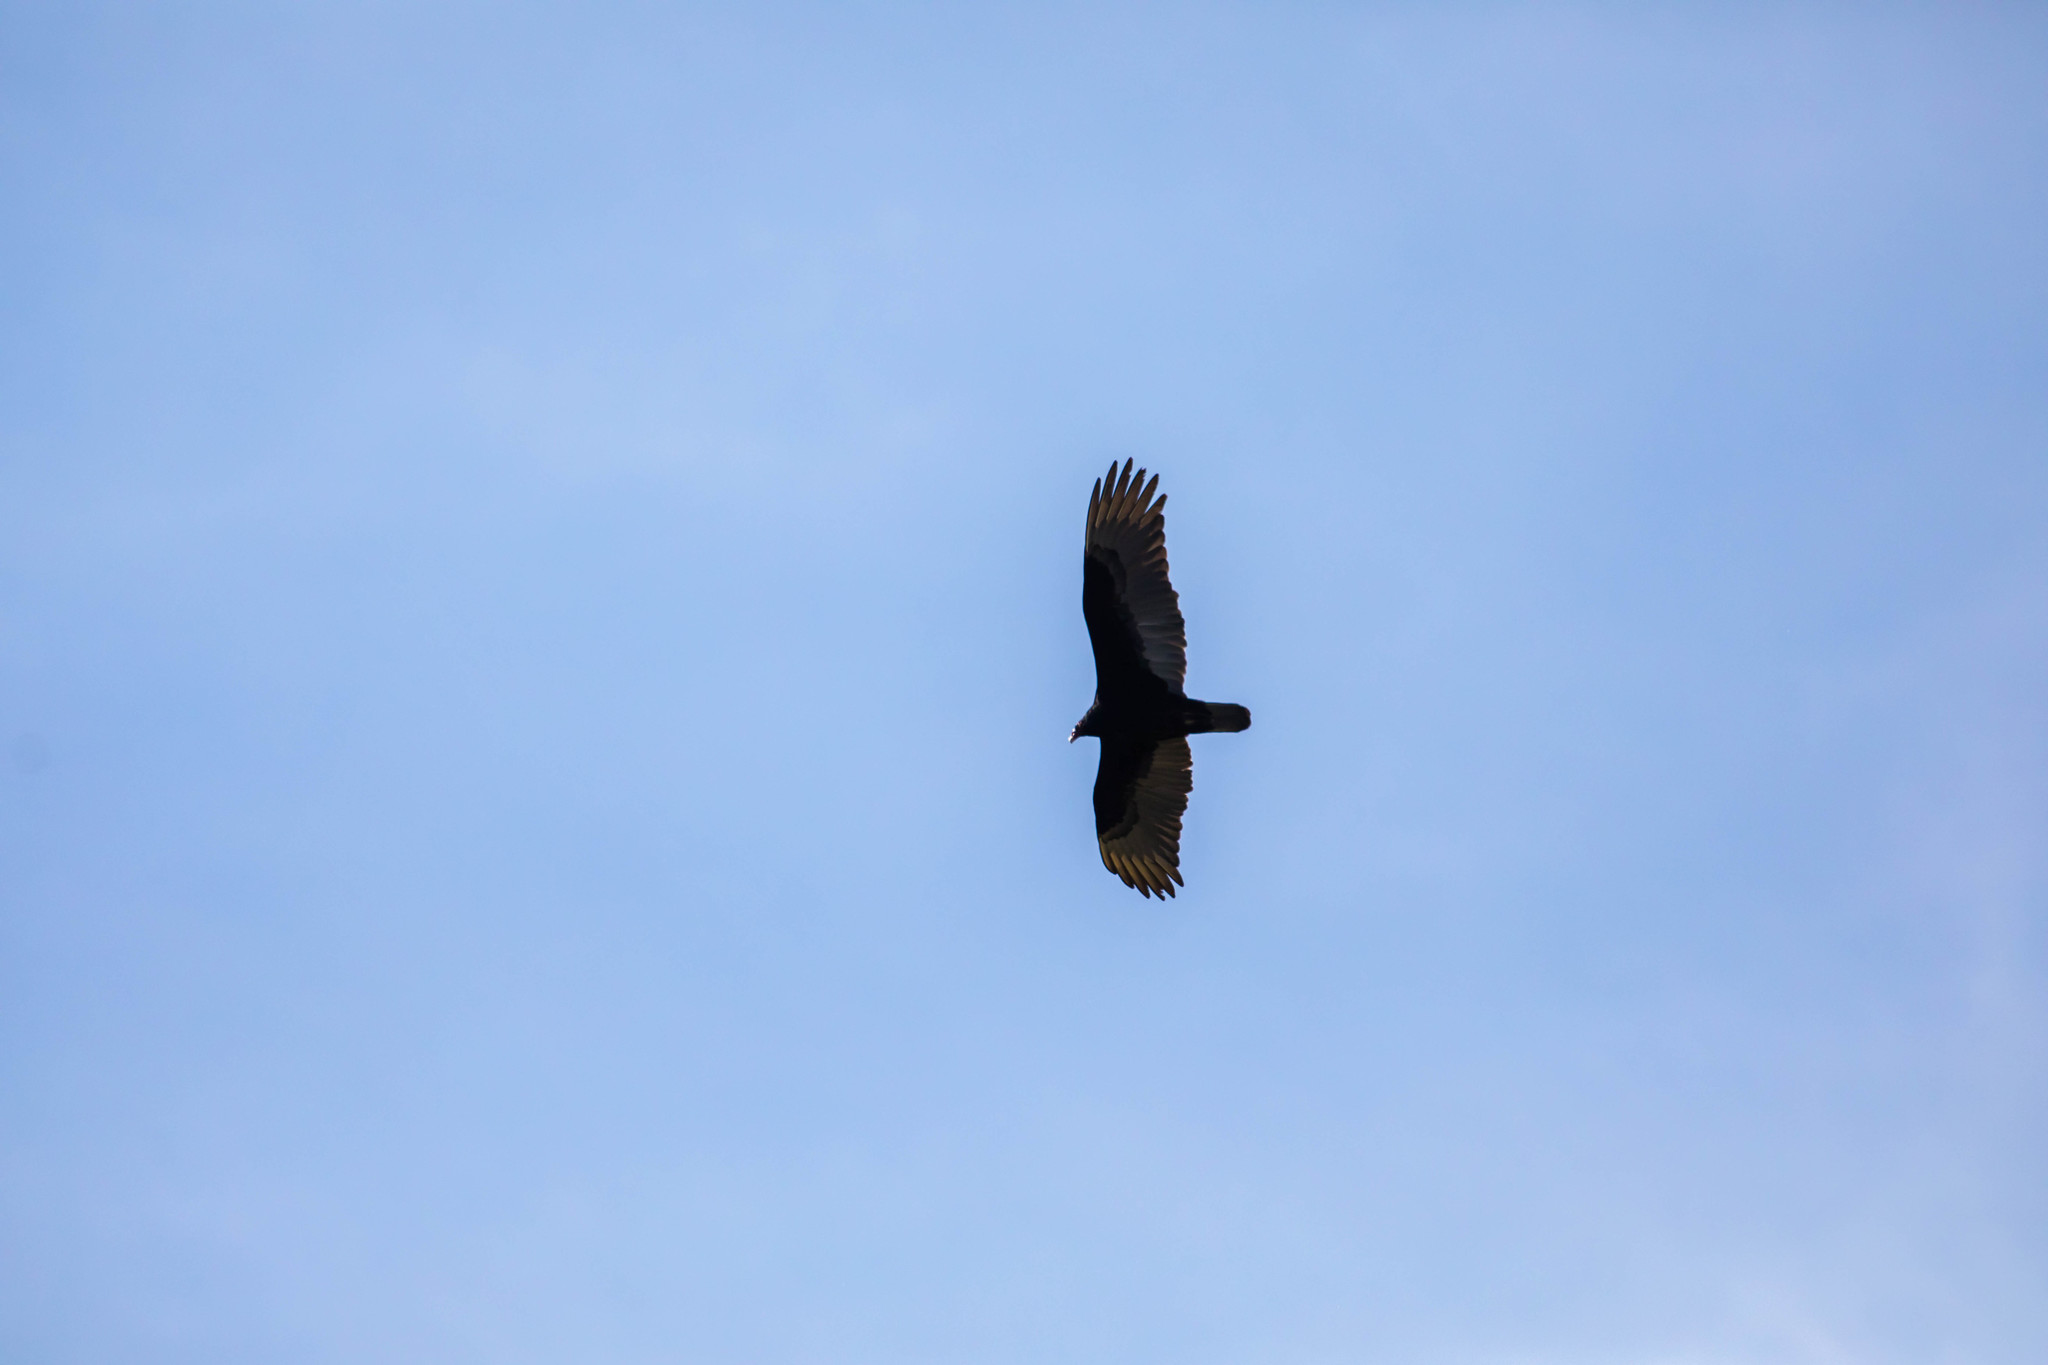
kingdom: Animalia
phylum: Chordata
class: Aves
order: Accipitriformes
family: Cathartidae
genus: Cathartes
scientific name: Cathartes aura
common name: Turkey vulture
